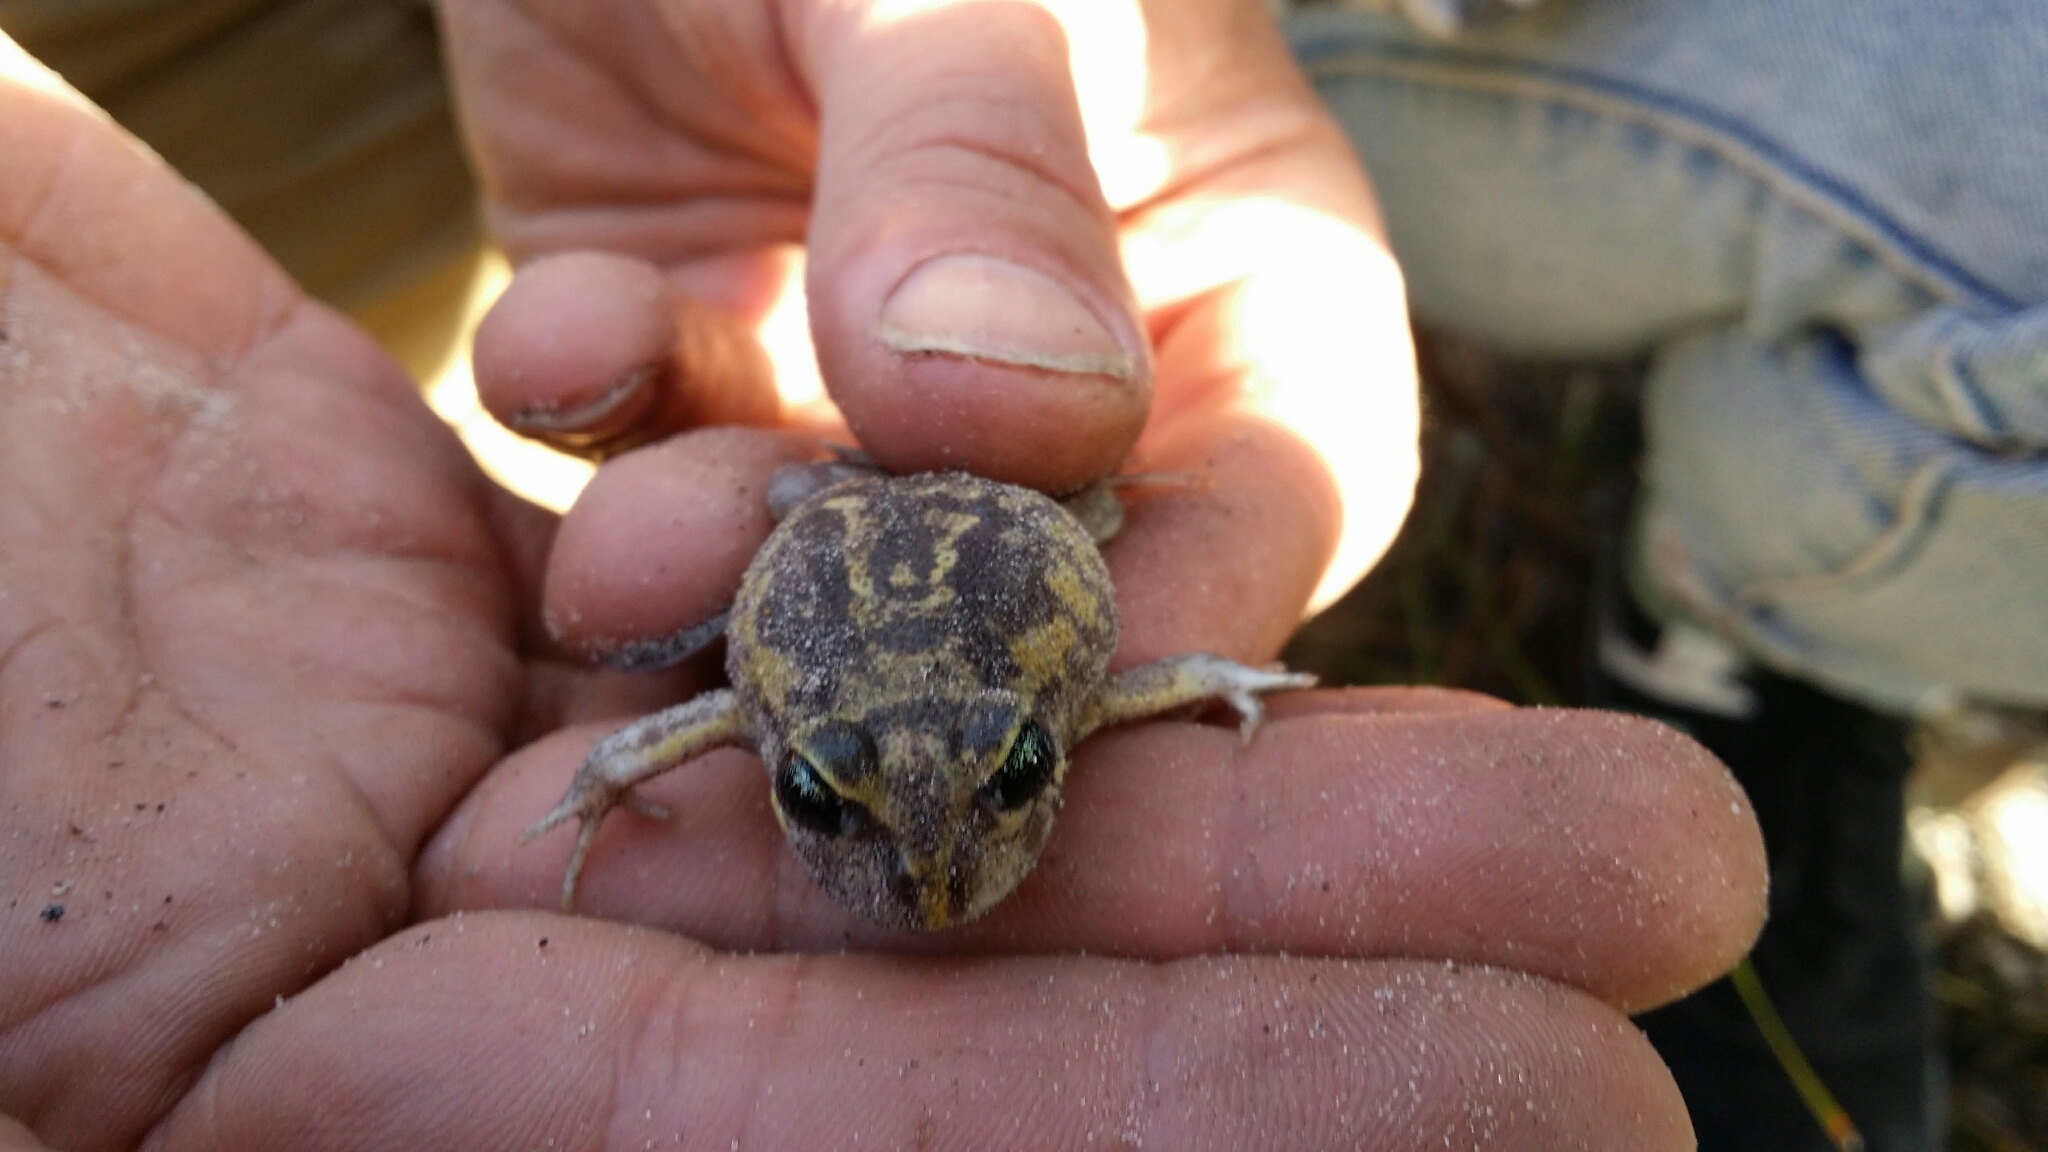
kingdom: Animalia
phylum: Chordata
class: Amphibia
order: Anura
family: Limnodynastidae
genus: Heleioporus
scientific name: Heleioporus eyrei
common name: Moaning frog
